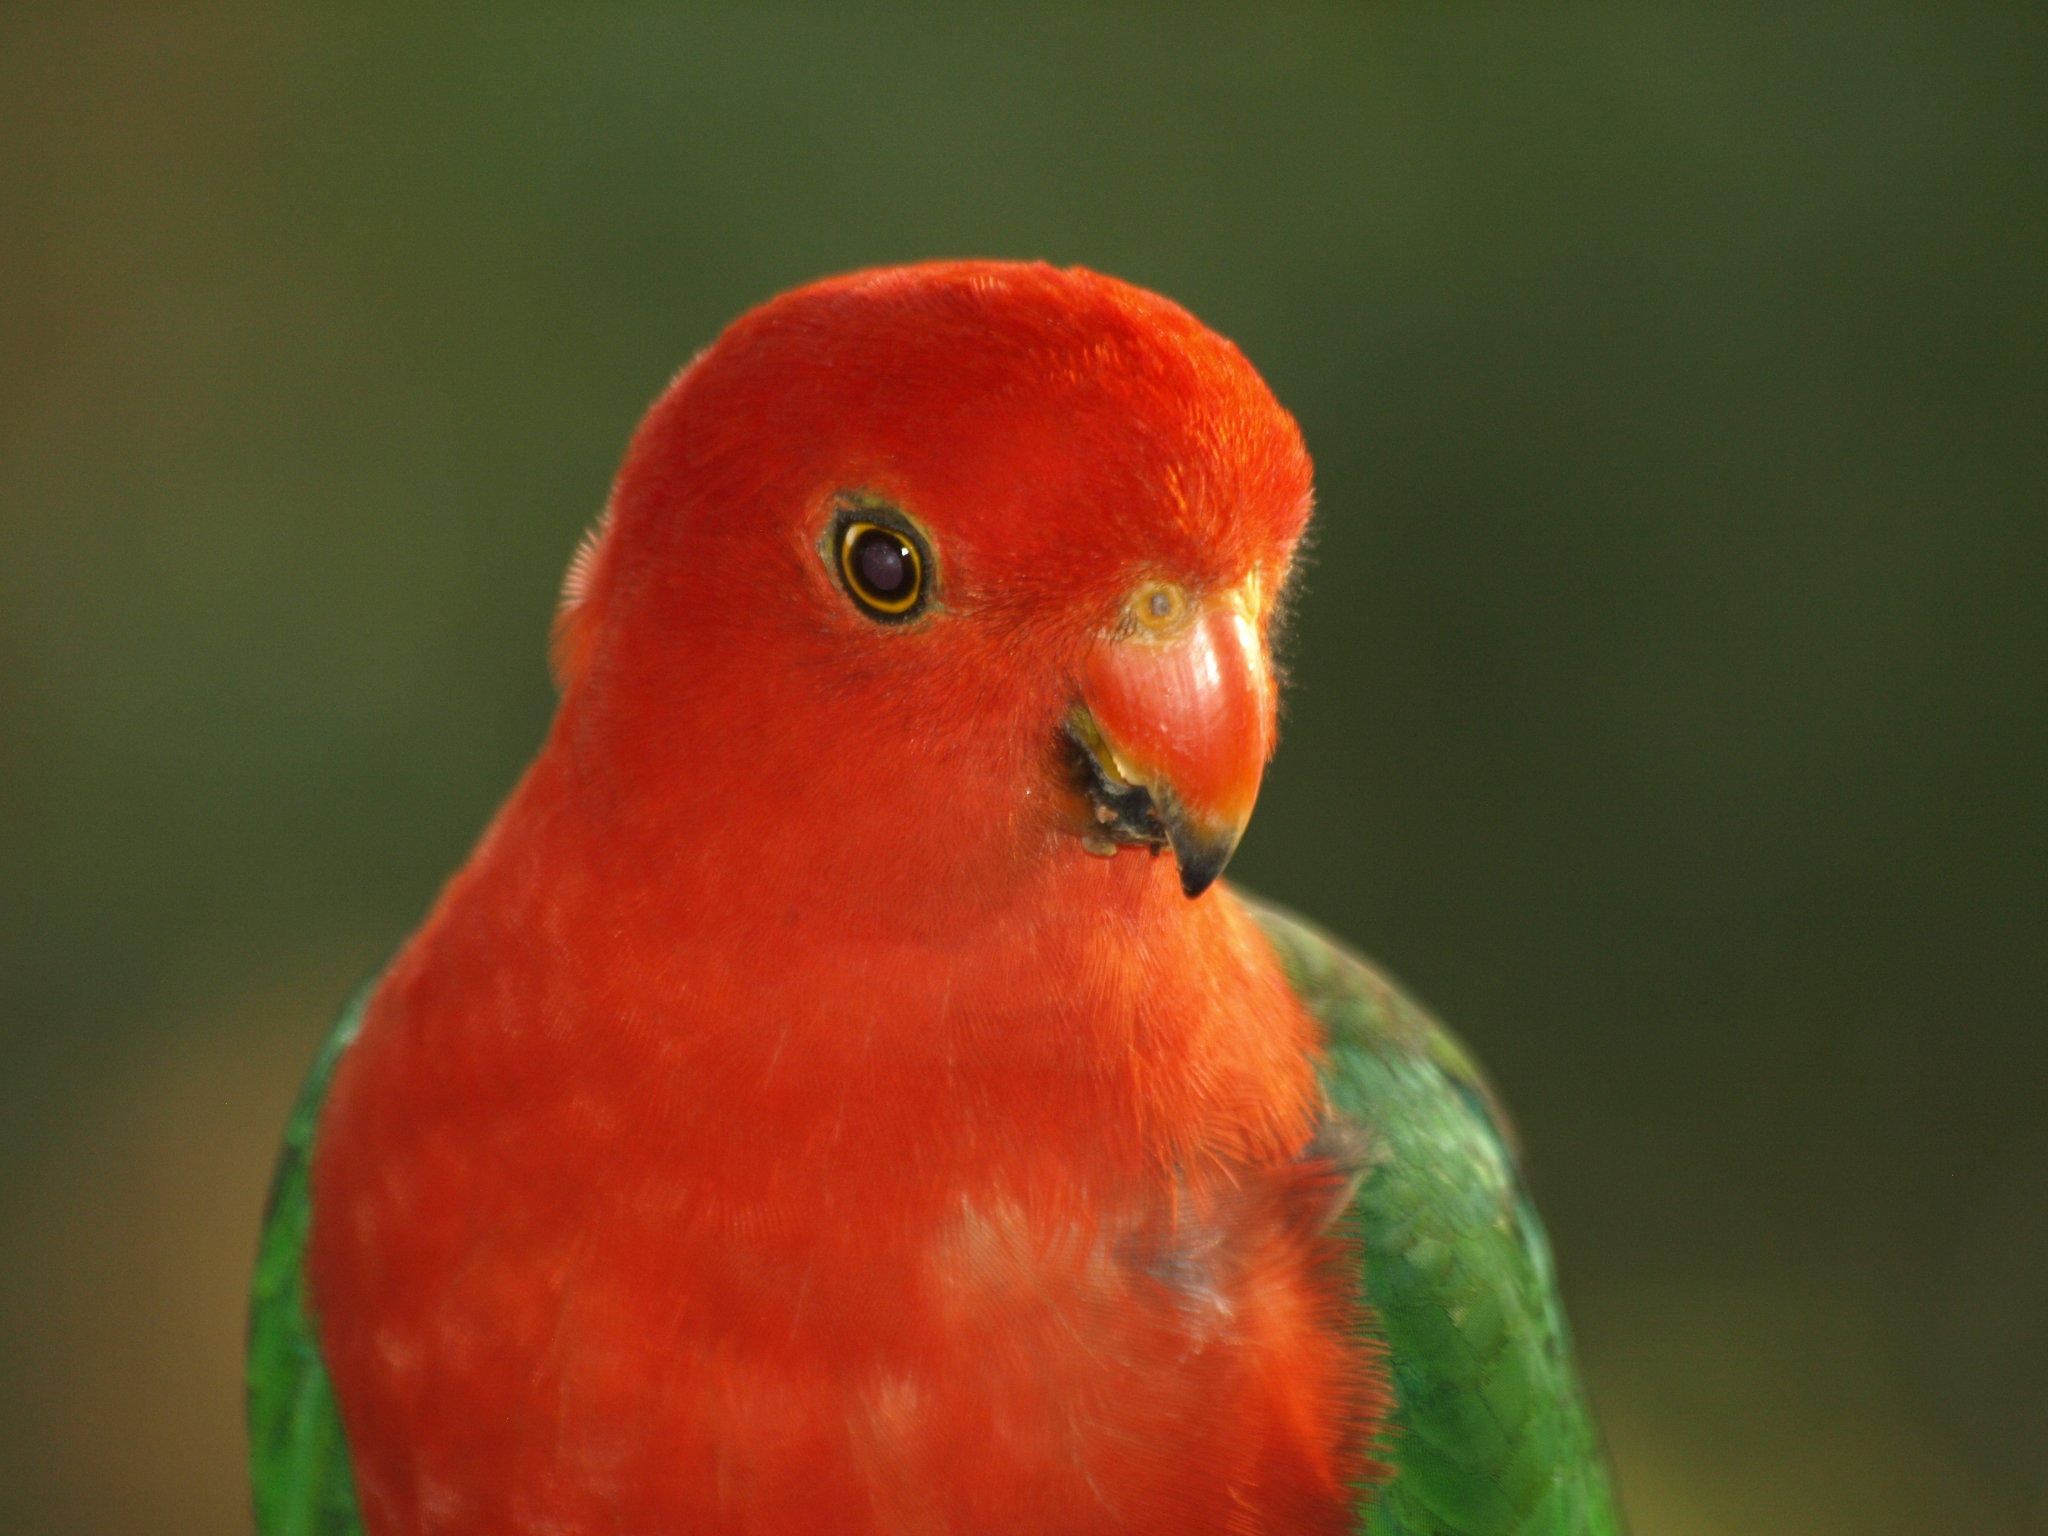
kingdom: Animalia
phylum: Chordata
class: Aves
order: Psittaciformes
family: Psittacidae
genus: Alisterus
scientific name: Alisterus scapularis
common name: Australian king parrot
